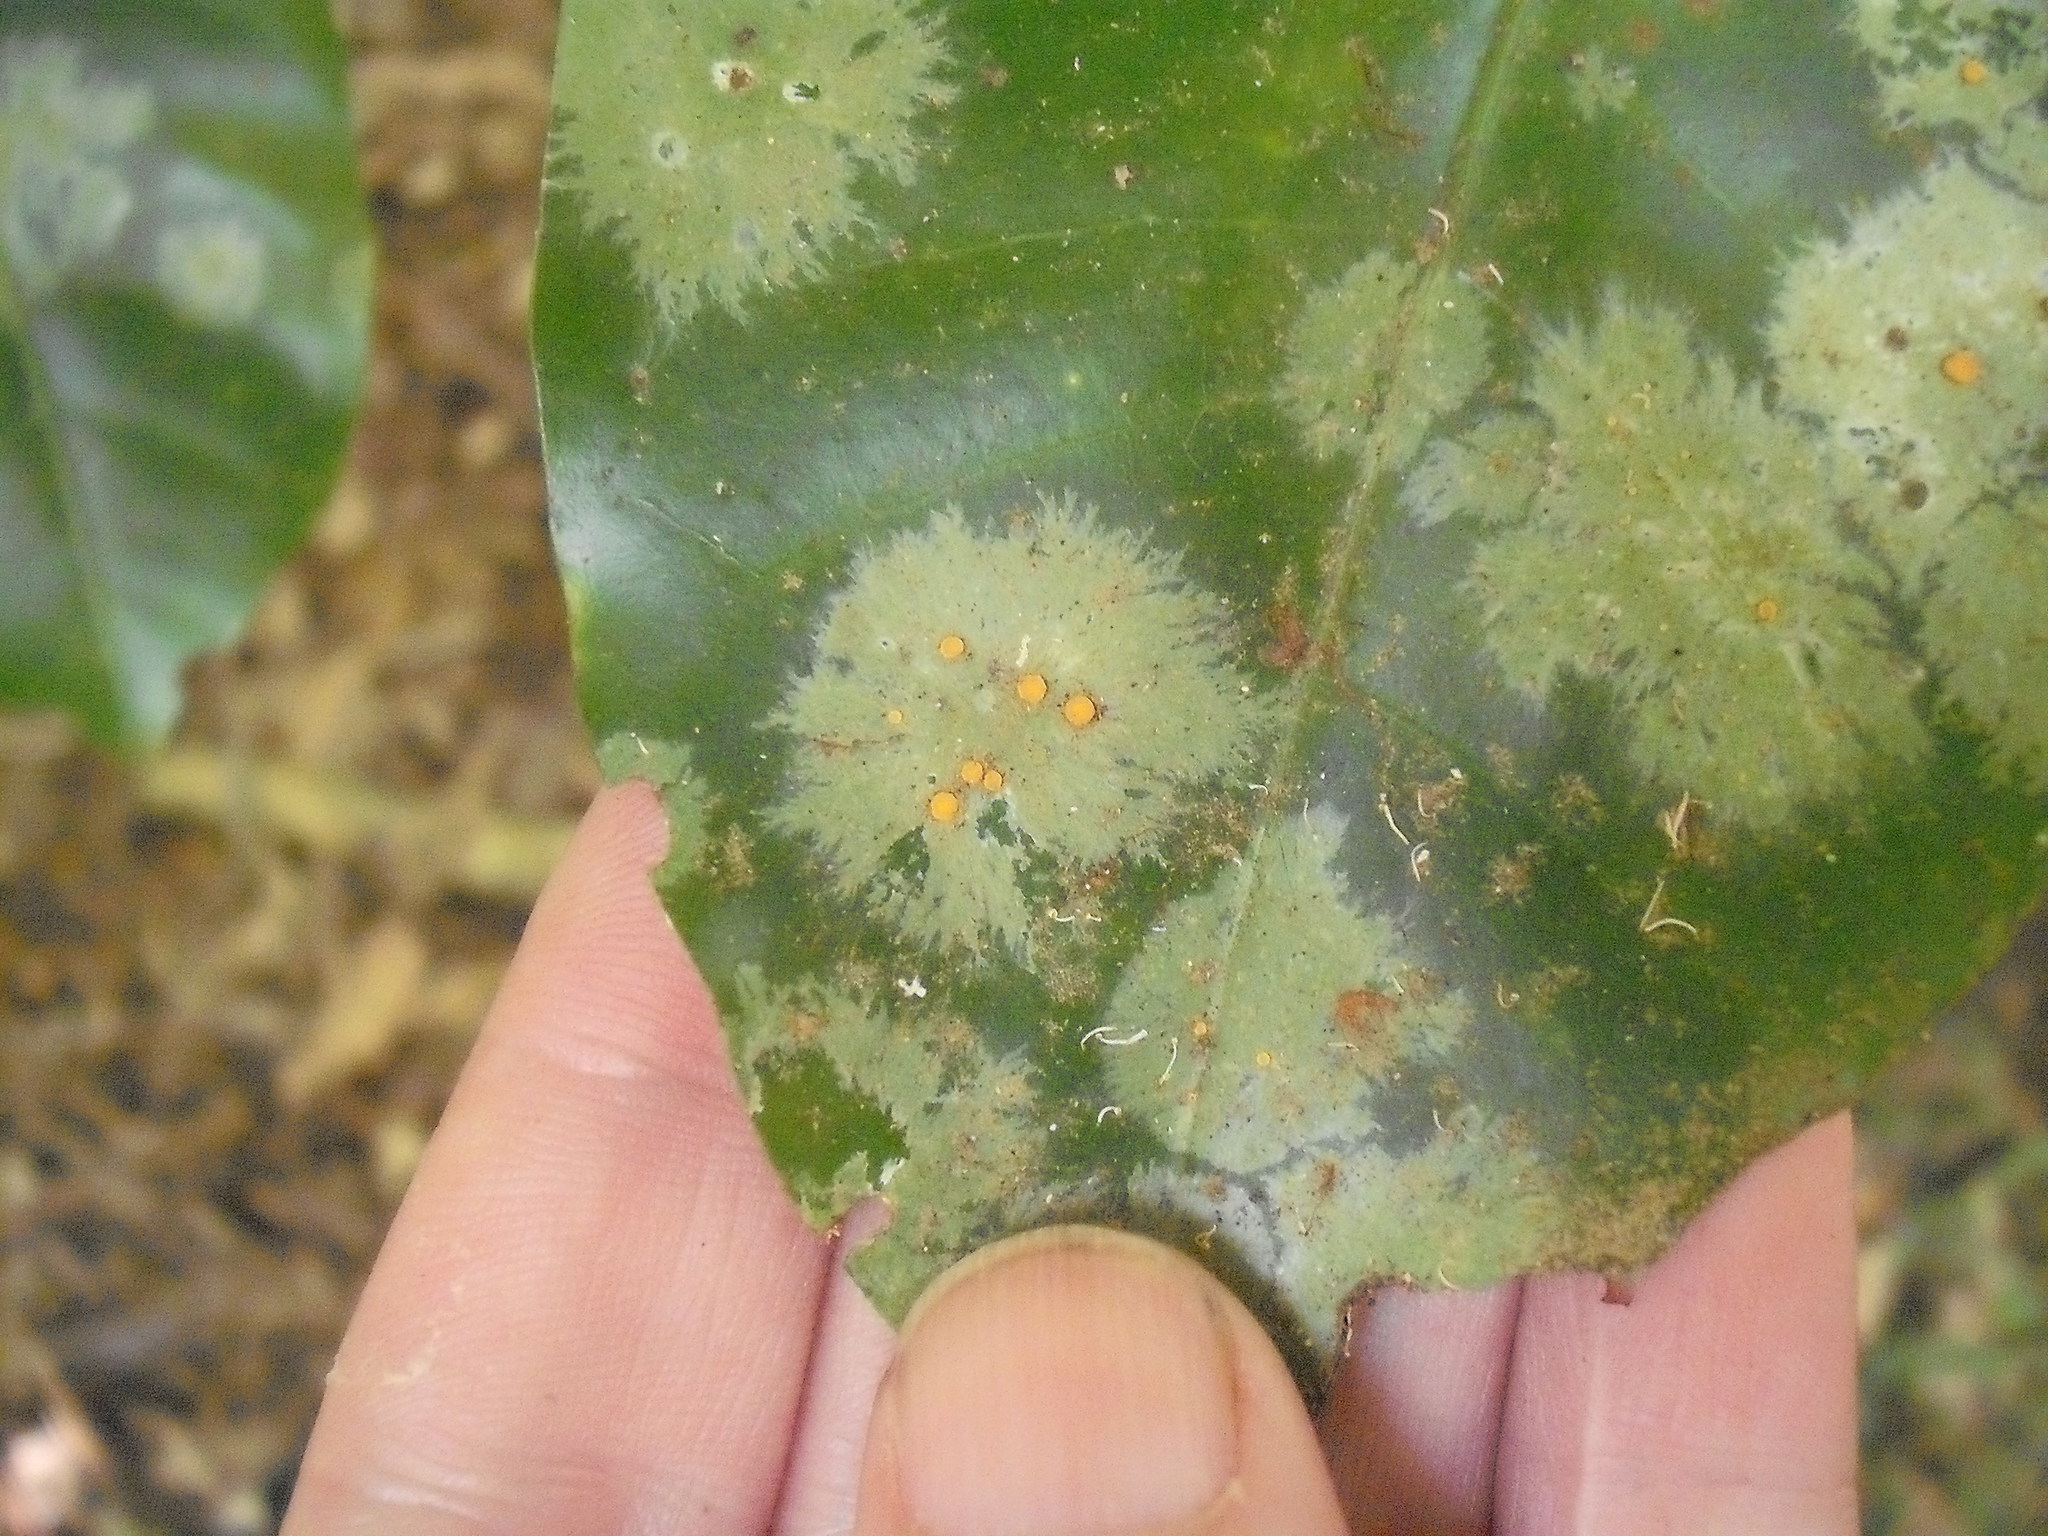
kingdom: Fungi
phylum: Ascomycota
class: Lecanoromycetes
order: Ostropales
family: Coenogoniaceae
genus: Coenogonium
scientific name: Coenogonium fallaciosum
